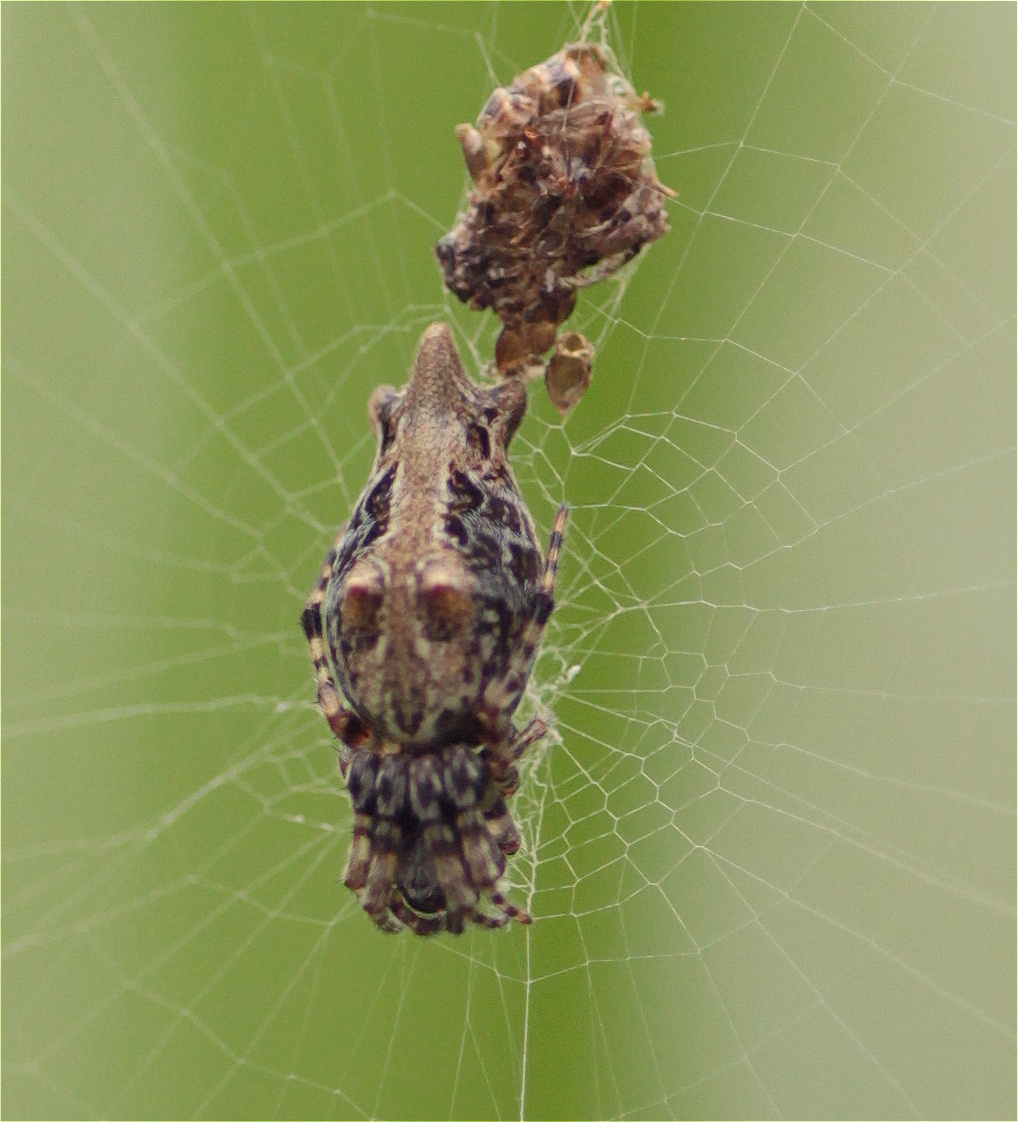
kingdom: Animalia
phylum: Arthropoda
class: Arachnida
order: Araneae
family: Araneidae
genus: Cyclosa
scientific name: Cyclosa bifurcata
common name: Orb weavers
